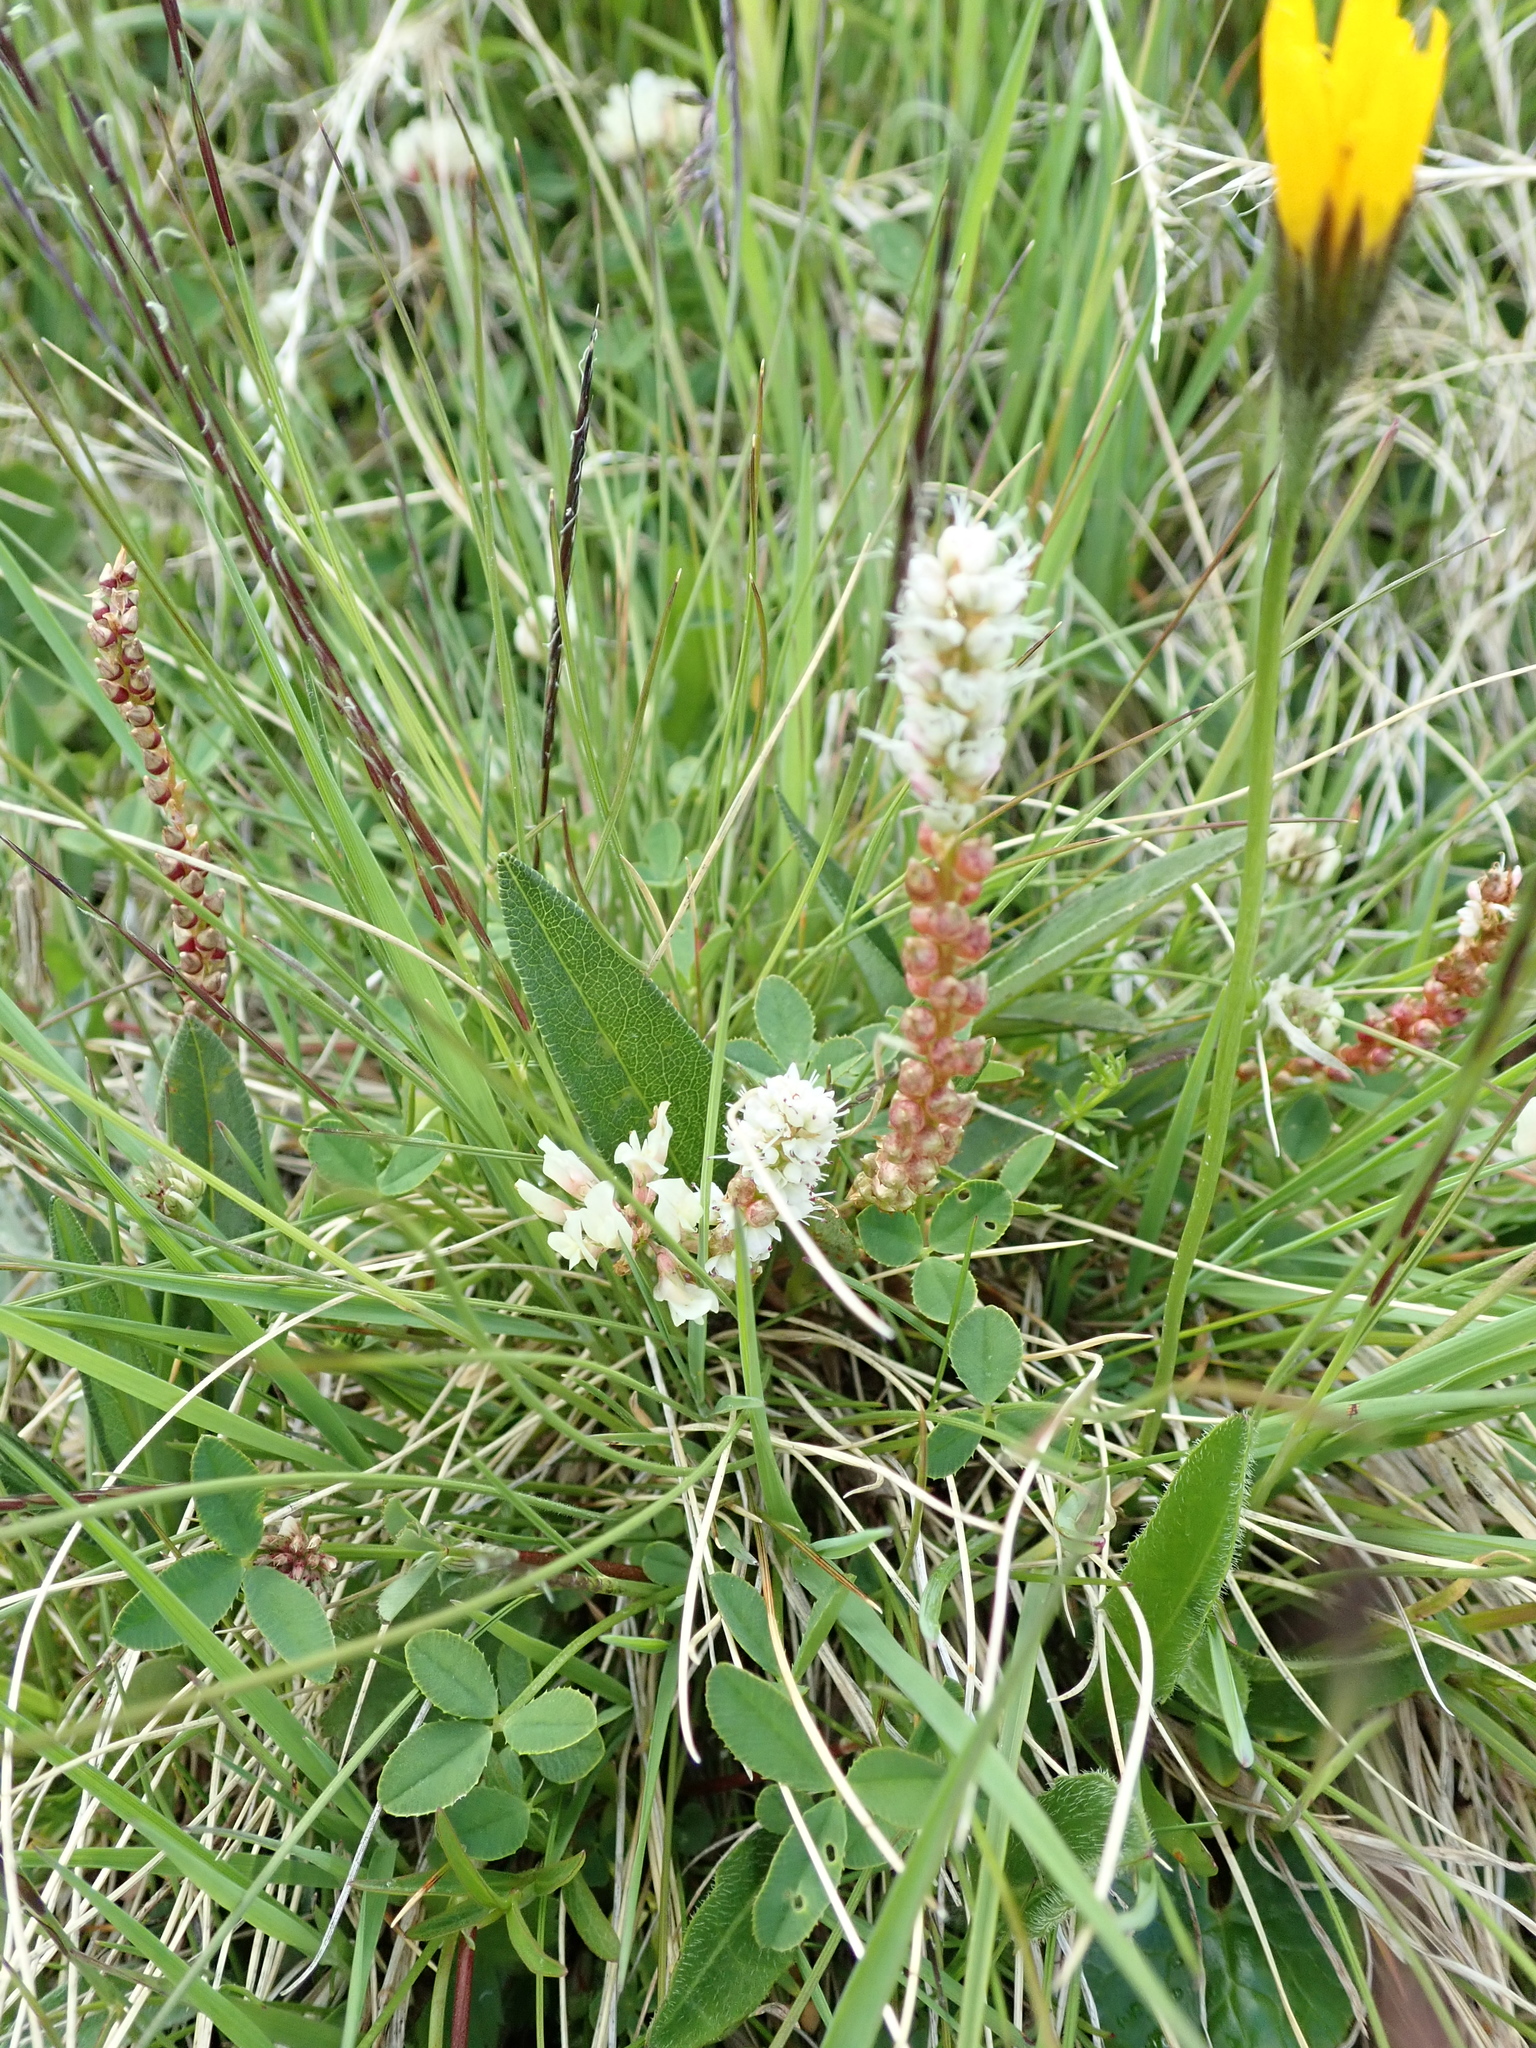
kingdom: Plantae
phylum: Tracheophyta
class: Magnoliopsida
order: Caryophyllales
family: Polygonaceae
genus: Bistorta
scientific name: Bistorta vivipara
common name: Alpine bistort
